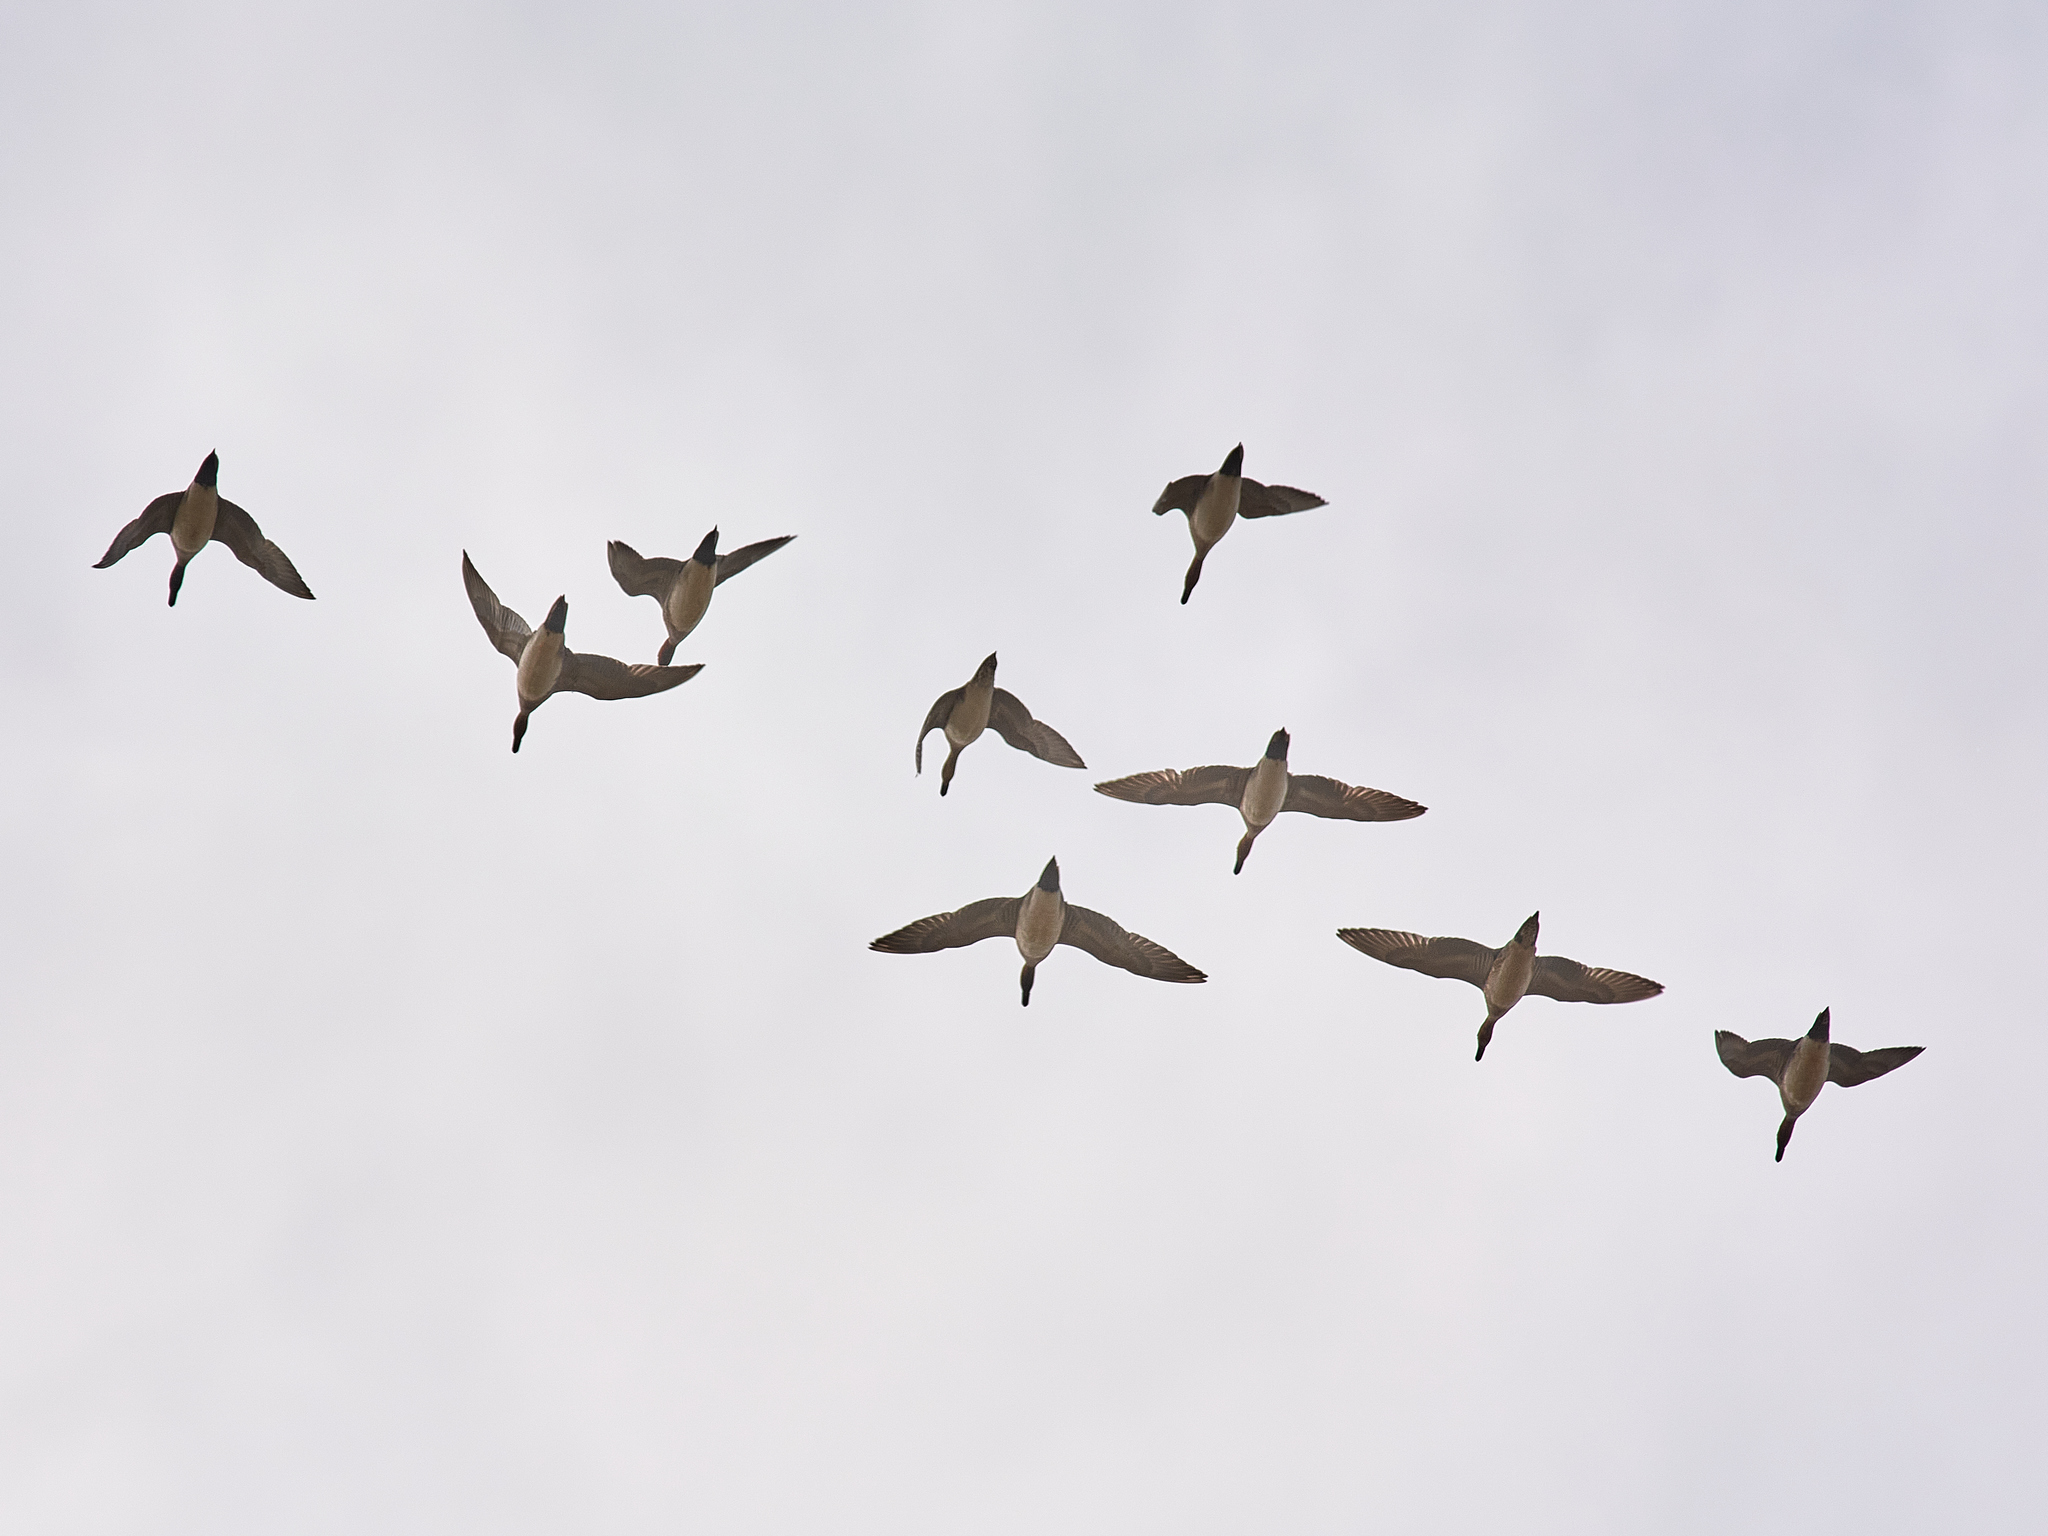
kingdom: Animalia
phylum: Chordata
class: Aves
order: Anseriformes
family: Anatidae
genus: Mareca
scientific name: Mareca penelope
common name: Eurasian wigeon
